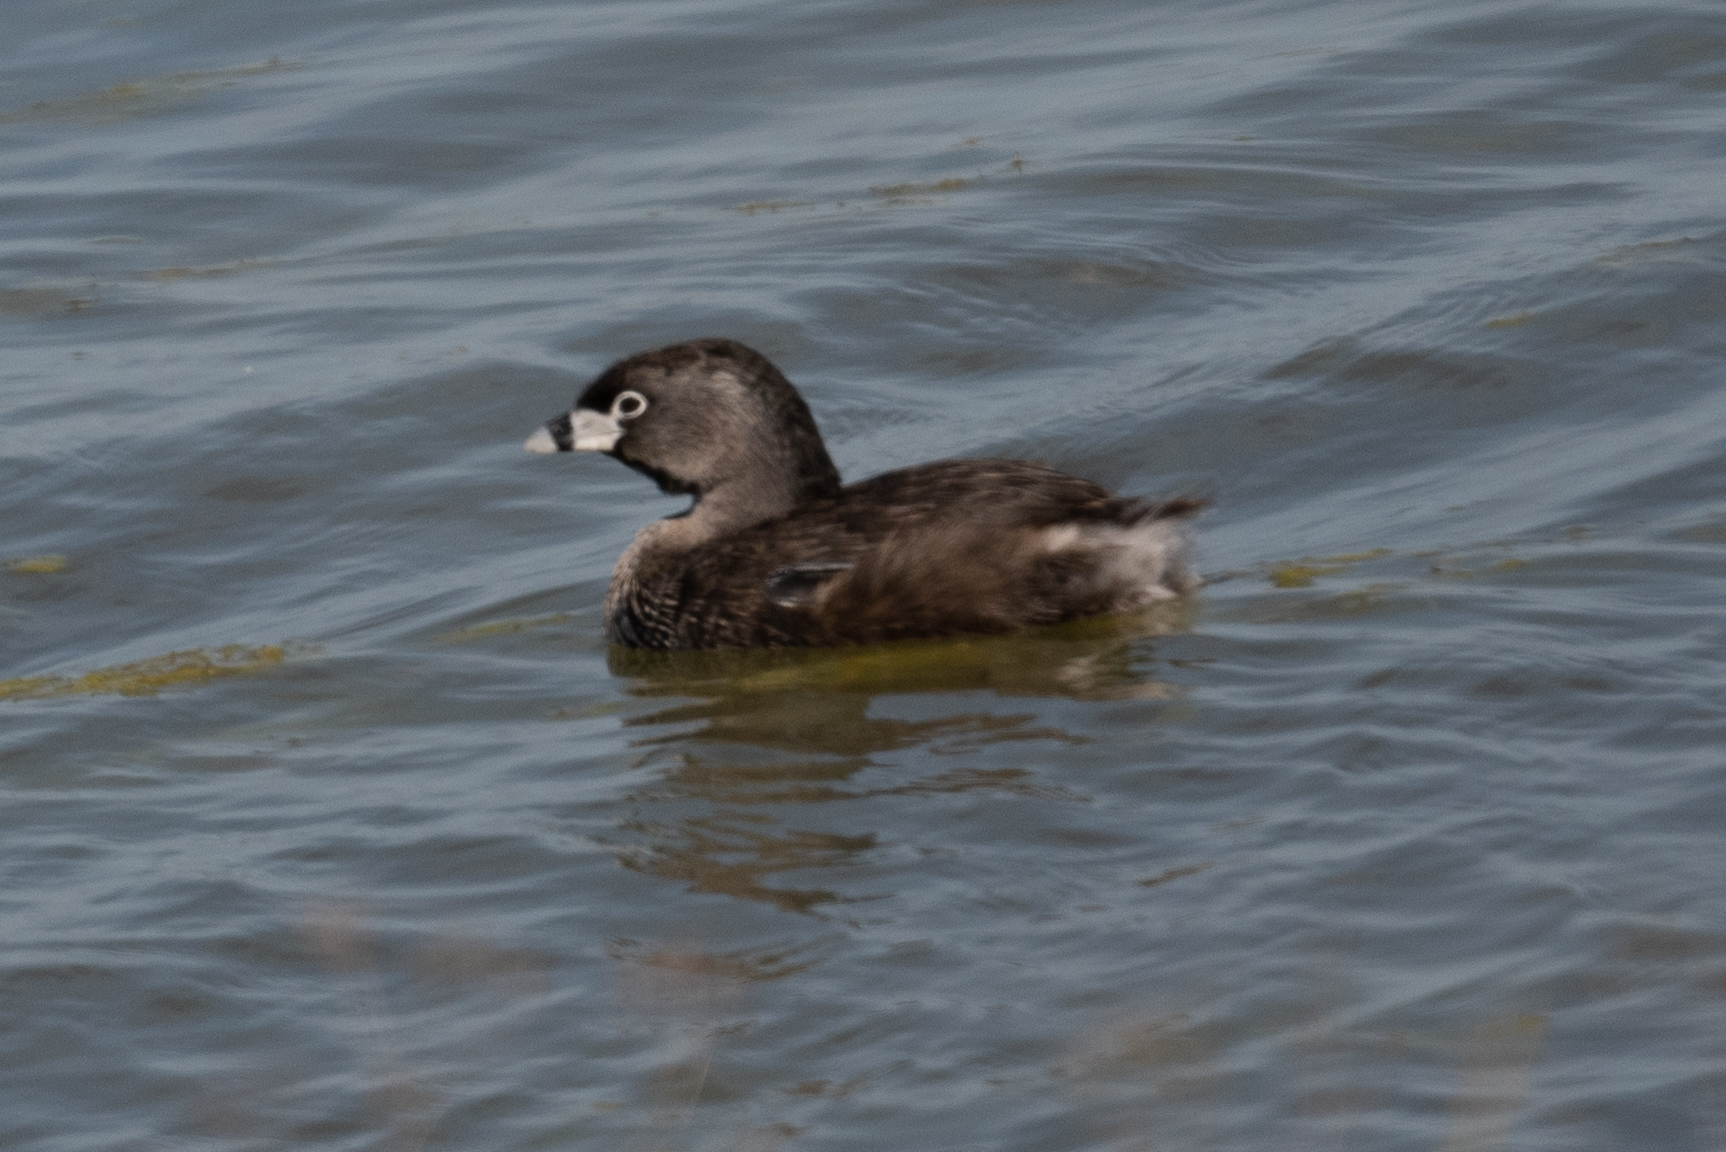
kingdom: Animalia
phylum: Chordata
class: Aves
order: Podicipediformes
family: Podicipedidae
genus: Podilymbus
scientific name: Podilymbus podiceps
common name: Pied-billed grebe
